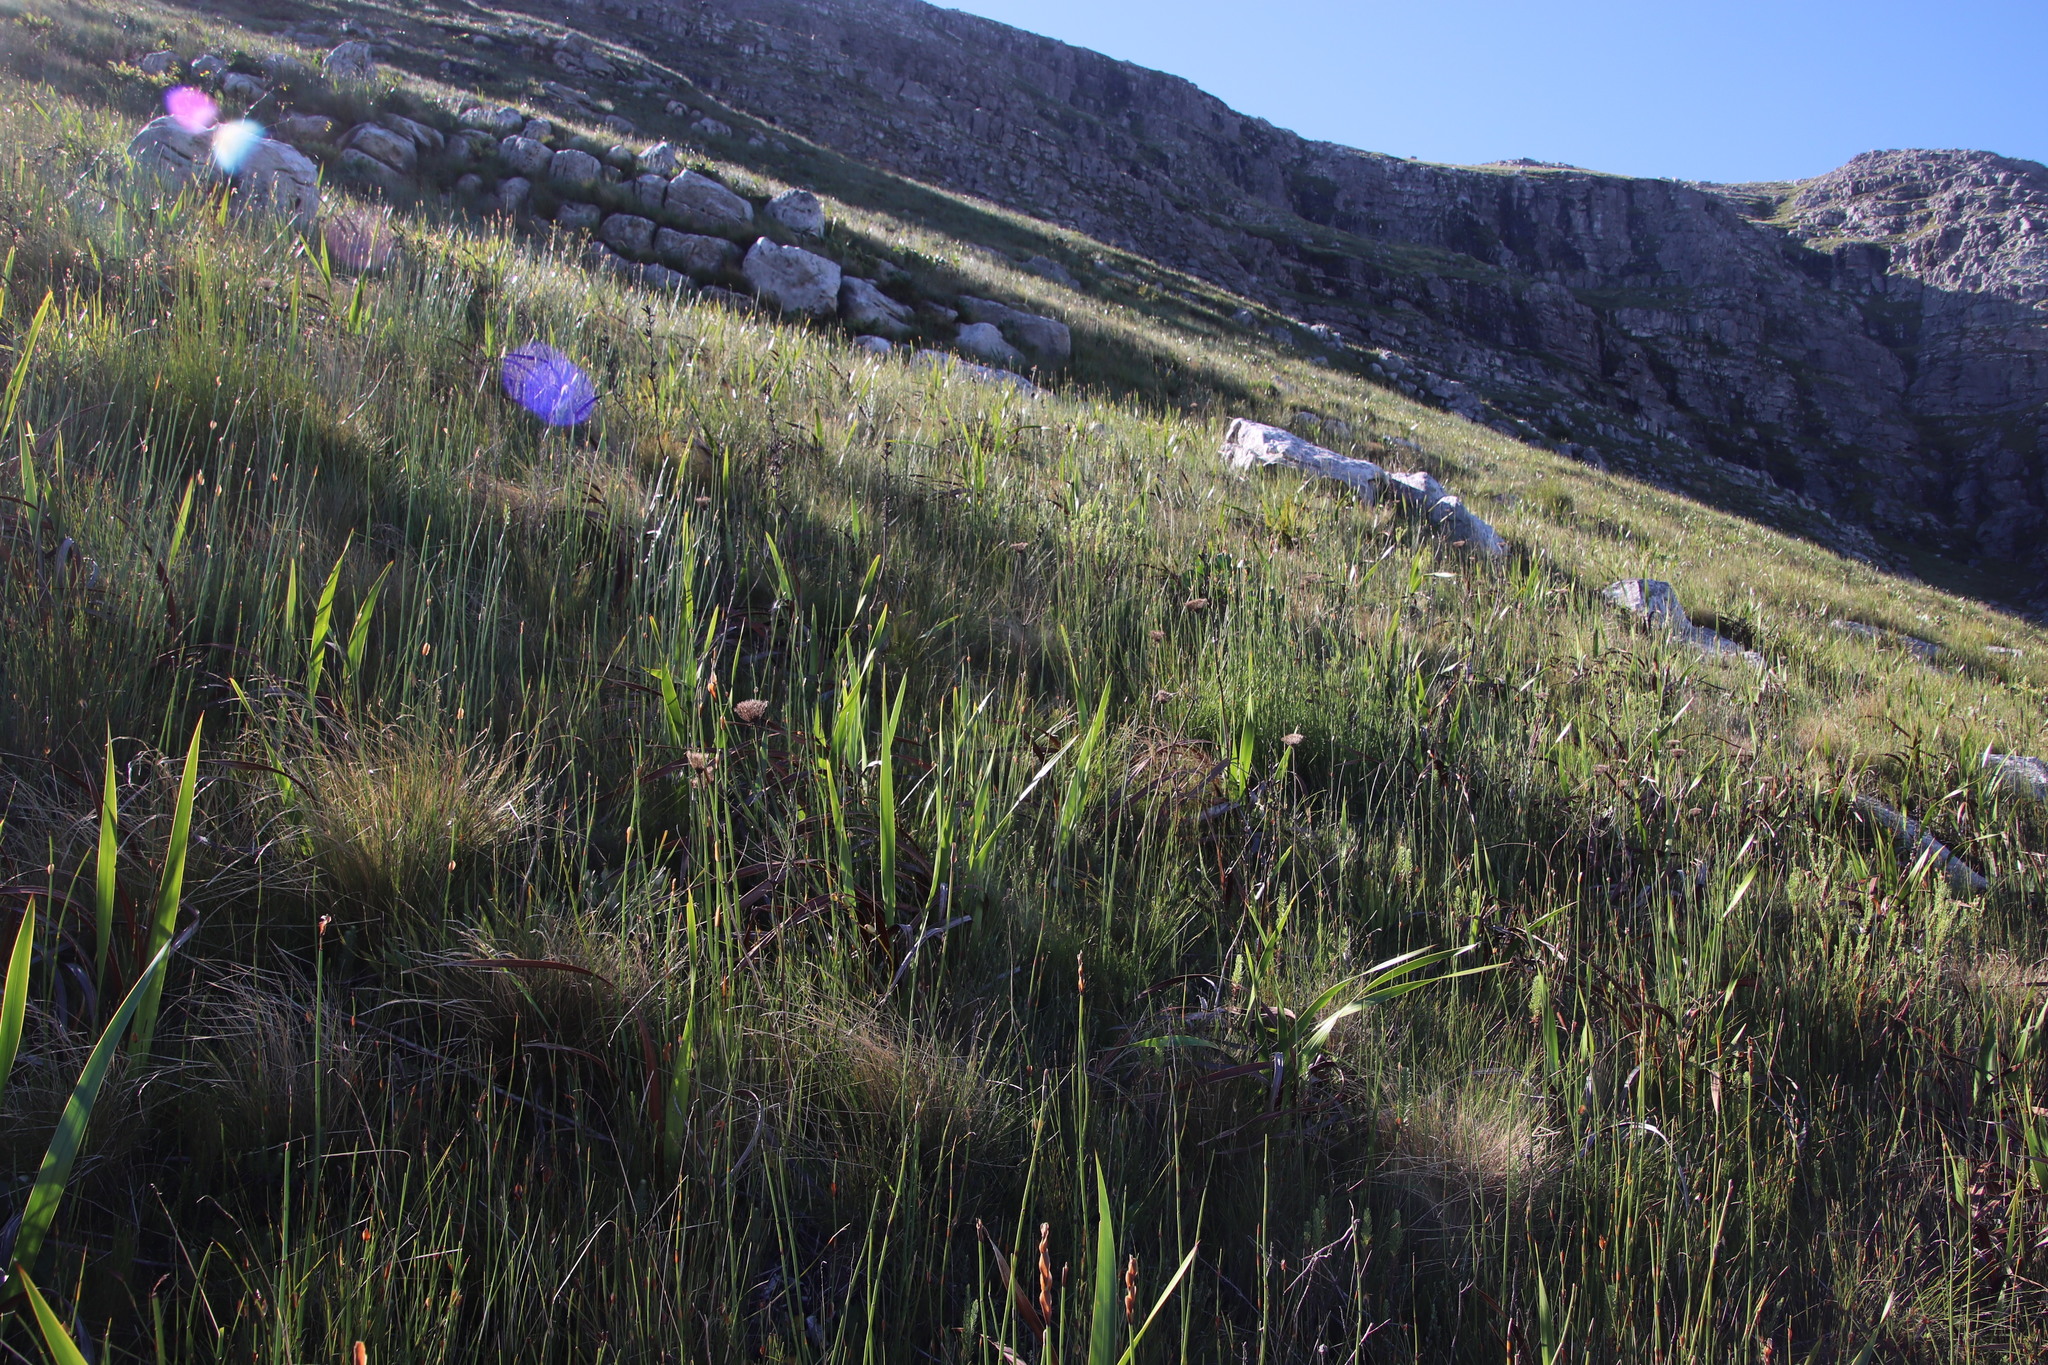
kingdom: Plantae
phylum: Tracheophyta
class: Magnoliopsida
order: Apiales
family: Apiaceae
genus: Hermas
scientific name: Hermas ciliata
